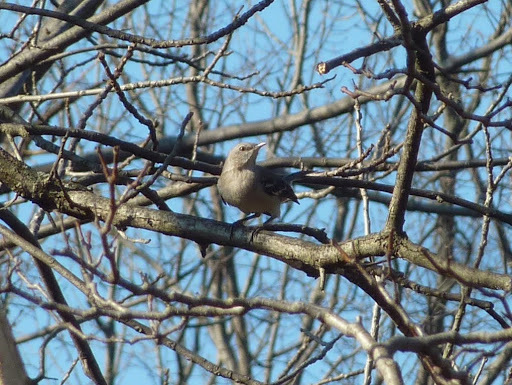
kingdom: Animalia
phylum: Chordata
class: Aves
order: Passeriformes
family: Mimidae
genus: Mimus
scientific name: Mimus polyglottos
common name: Northern mockingbird
